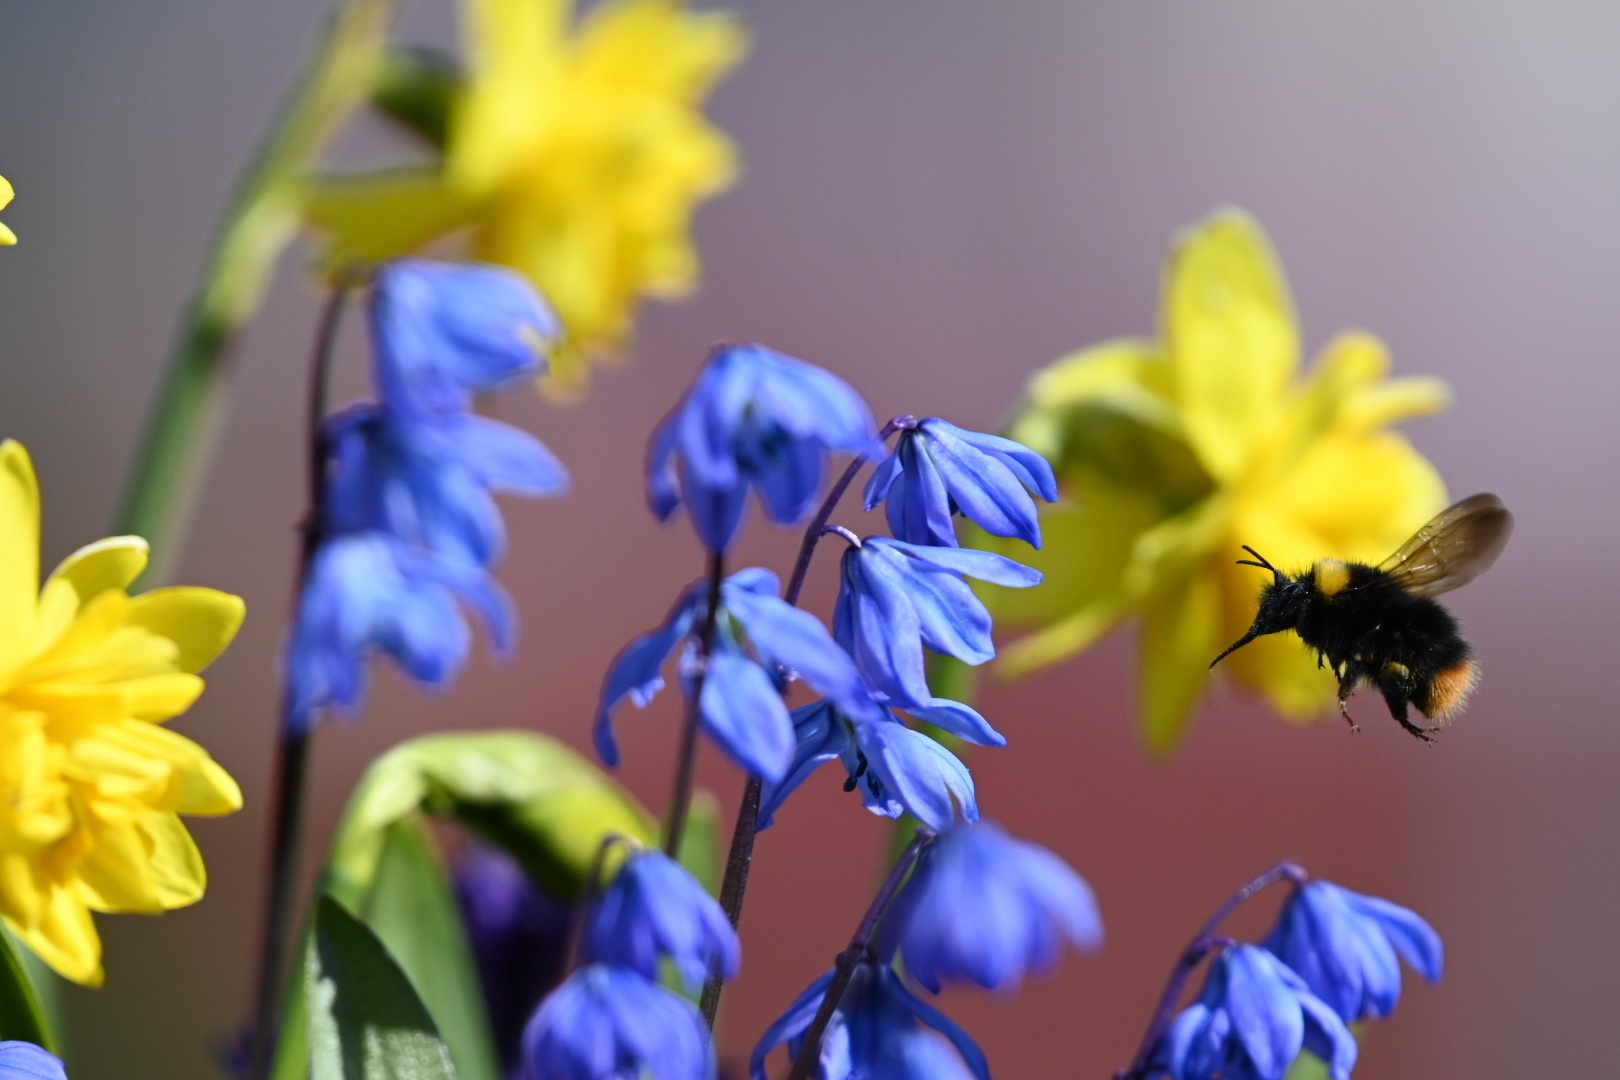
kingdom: Animalia
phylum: Arthropoda
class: Insecta
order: Hymenoptera
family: Apidae
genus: Bombus
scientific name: Bombus pratorum
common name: Early humble-bee
